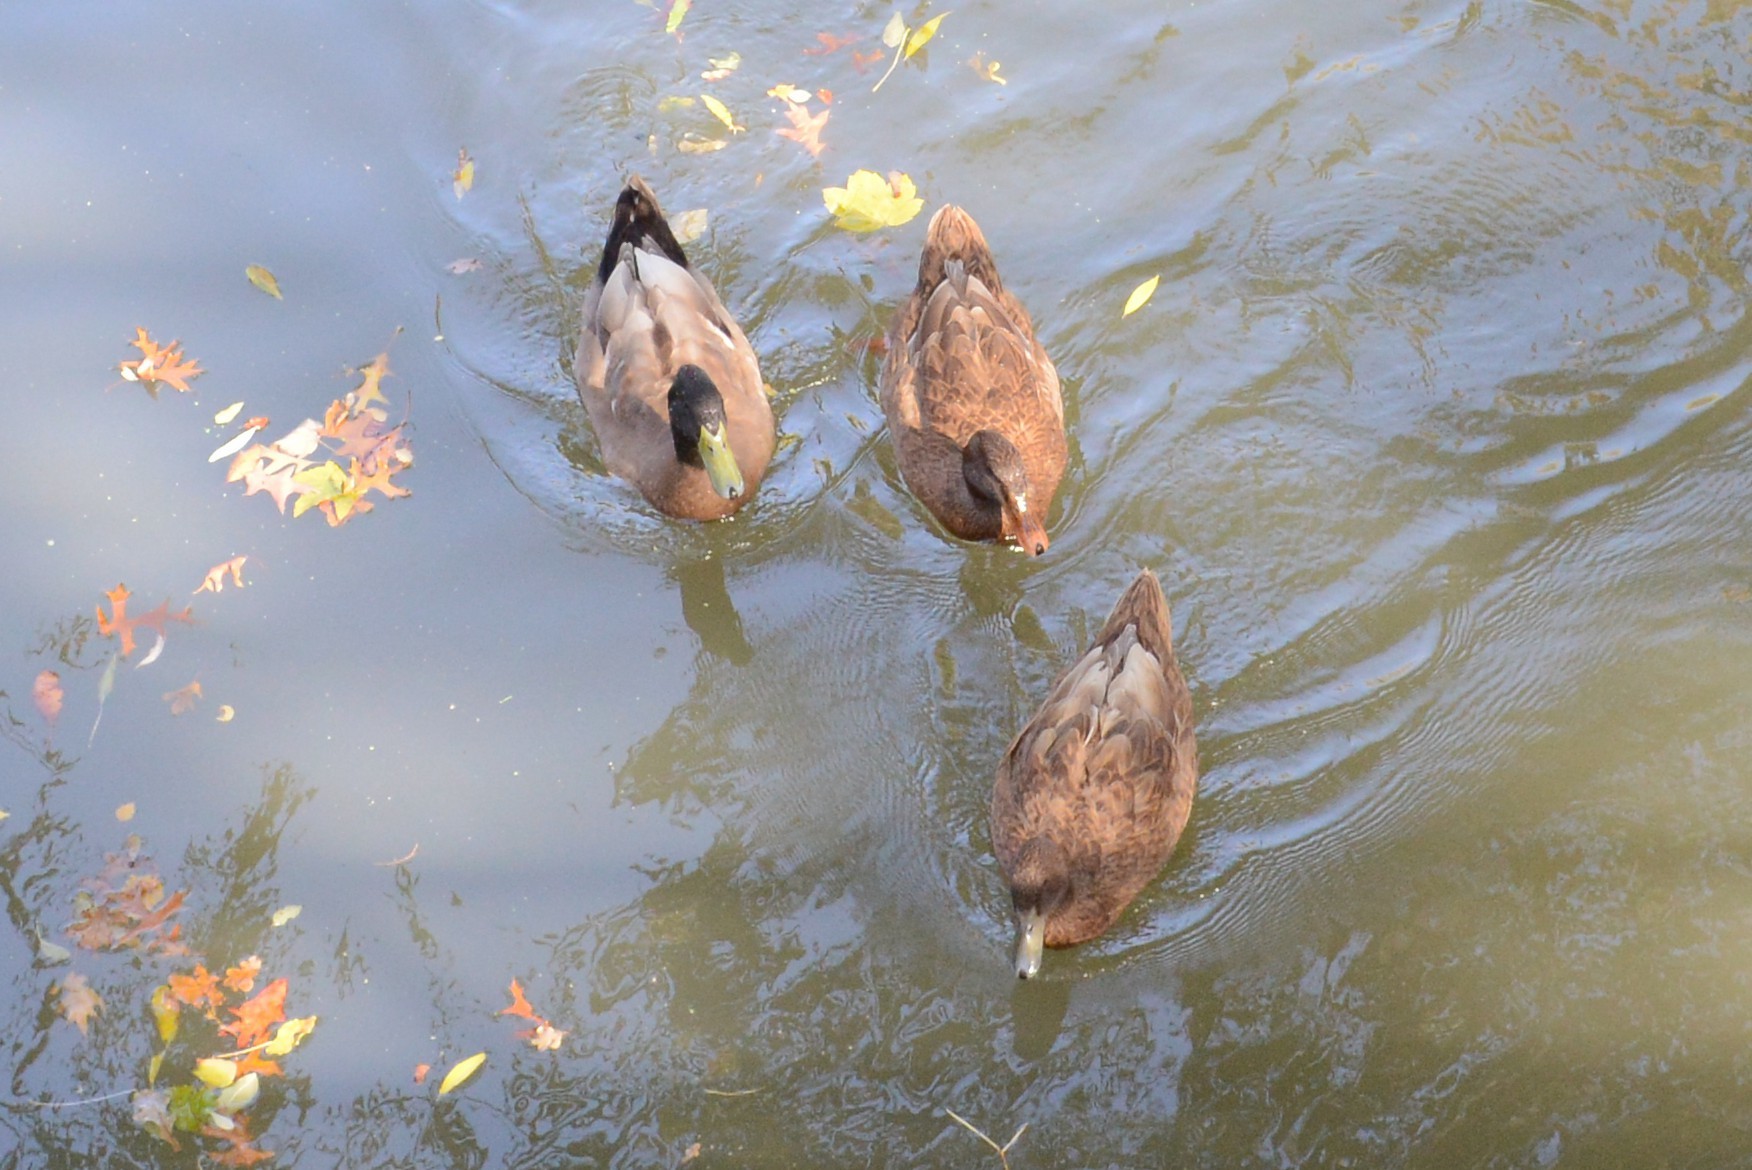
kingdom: Animalia
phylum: Chordata
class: Aves
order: Anseriformes
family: Anatidae
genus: Anas
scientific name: Anas platyrhynchos
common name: Mallard
